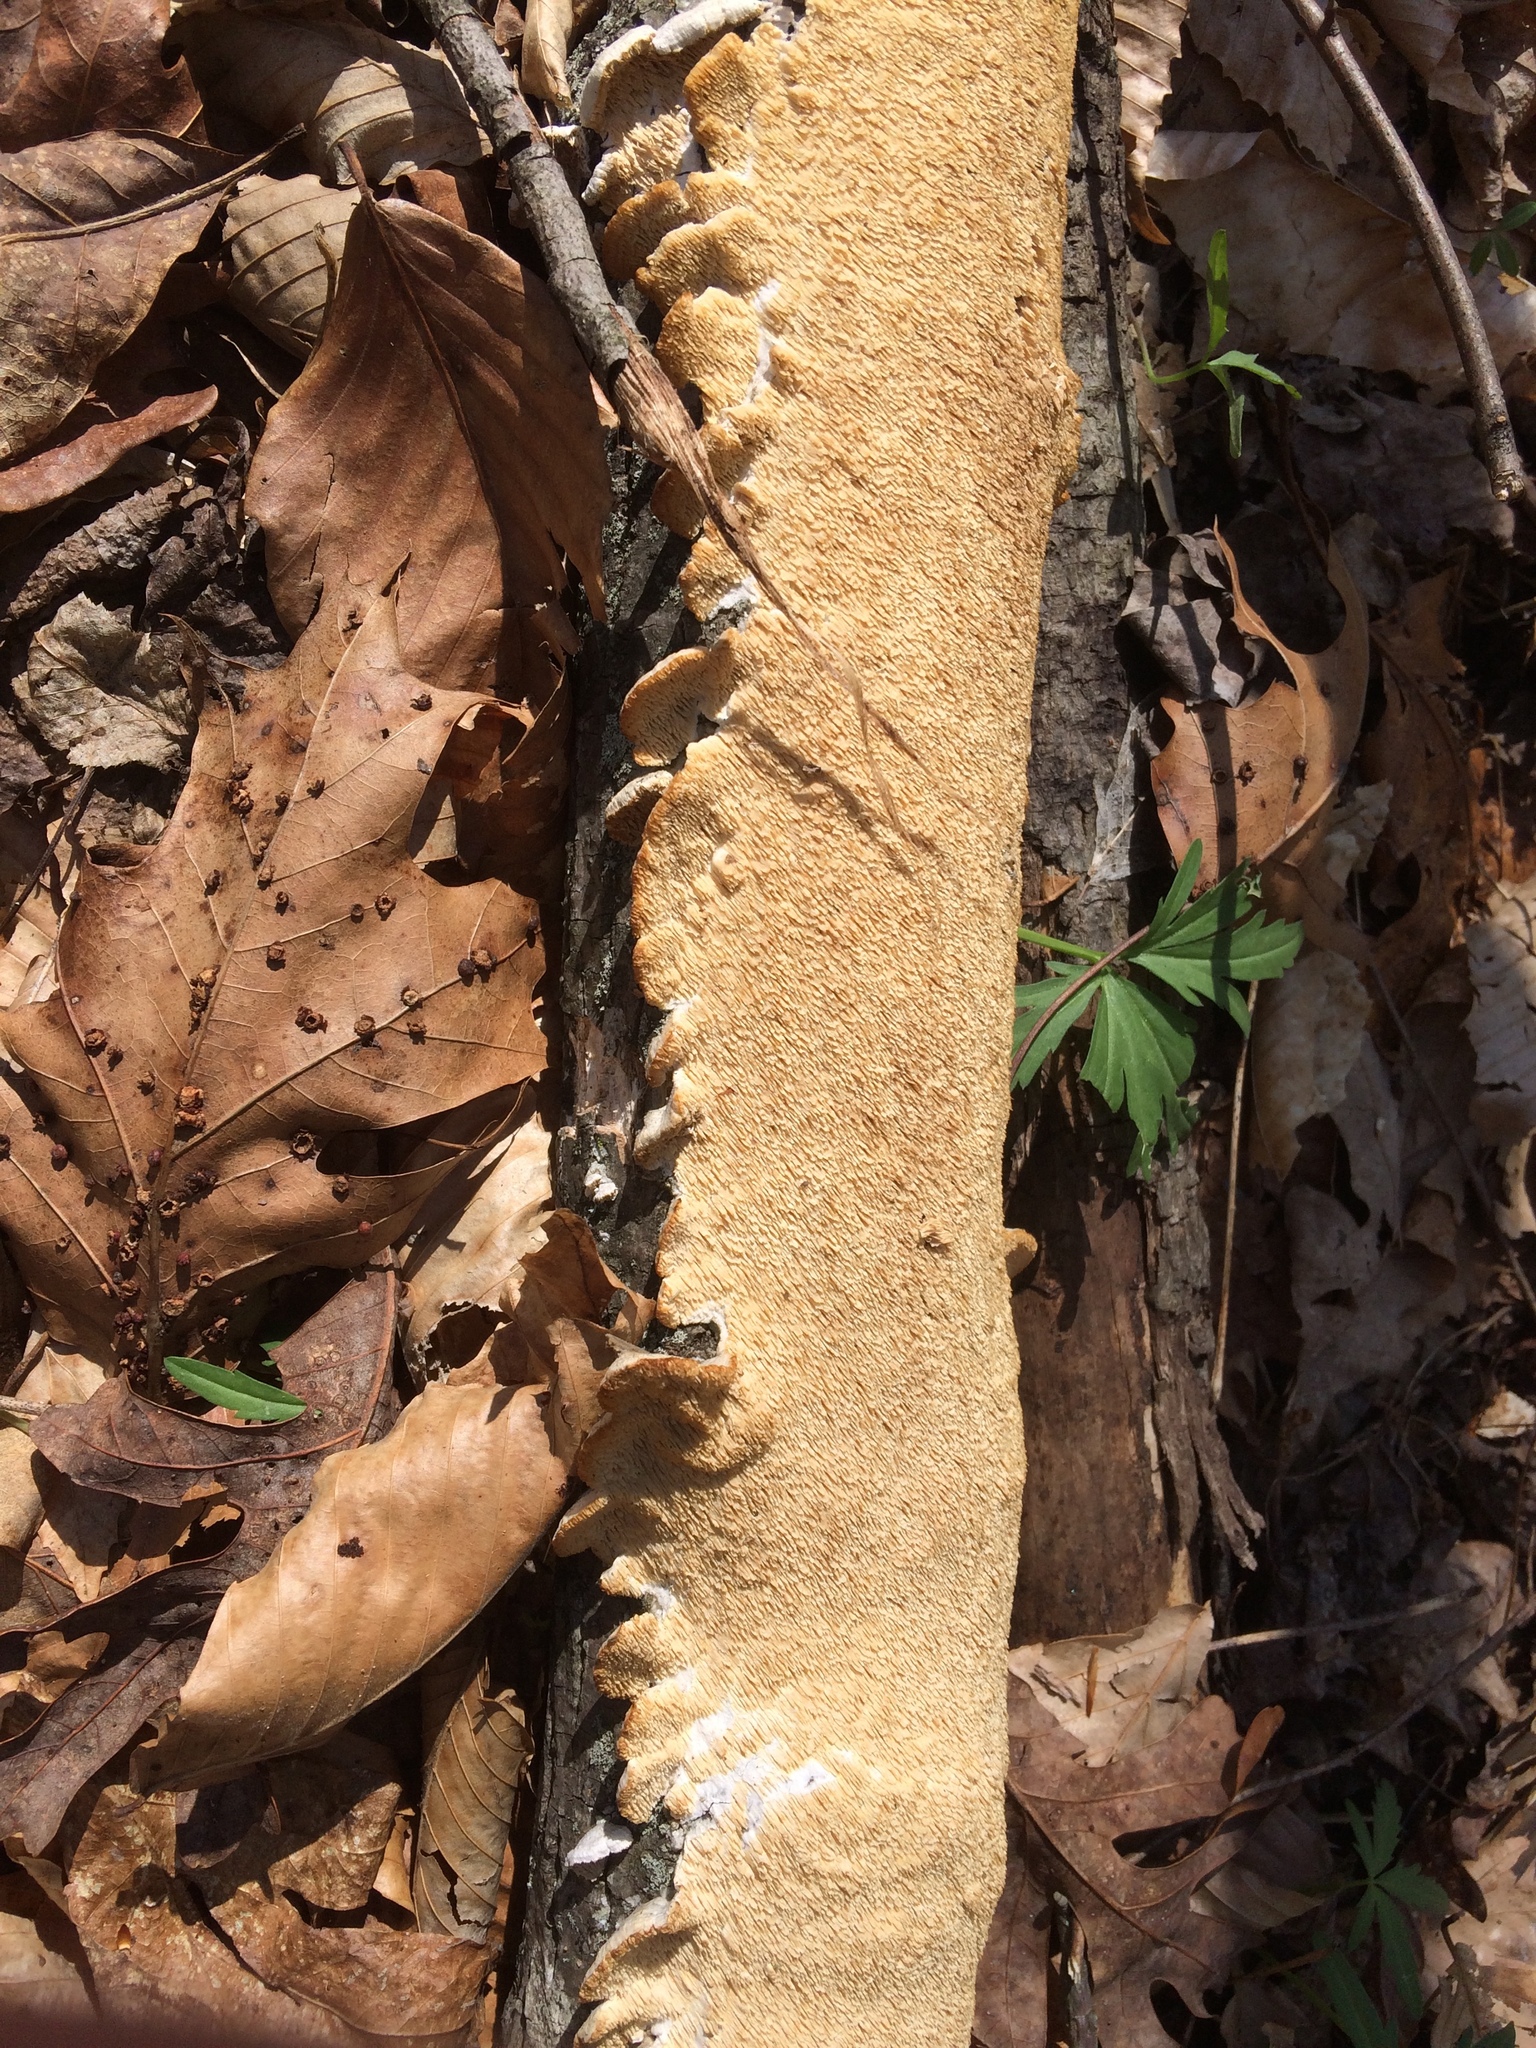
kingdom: Fungi
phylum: Basidiomycota
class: Agaricomycetes
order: Polyporales
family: Irpicaceae
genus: Irpex
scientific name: Irpex lacteus
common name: Milk-white toothed polypore
